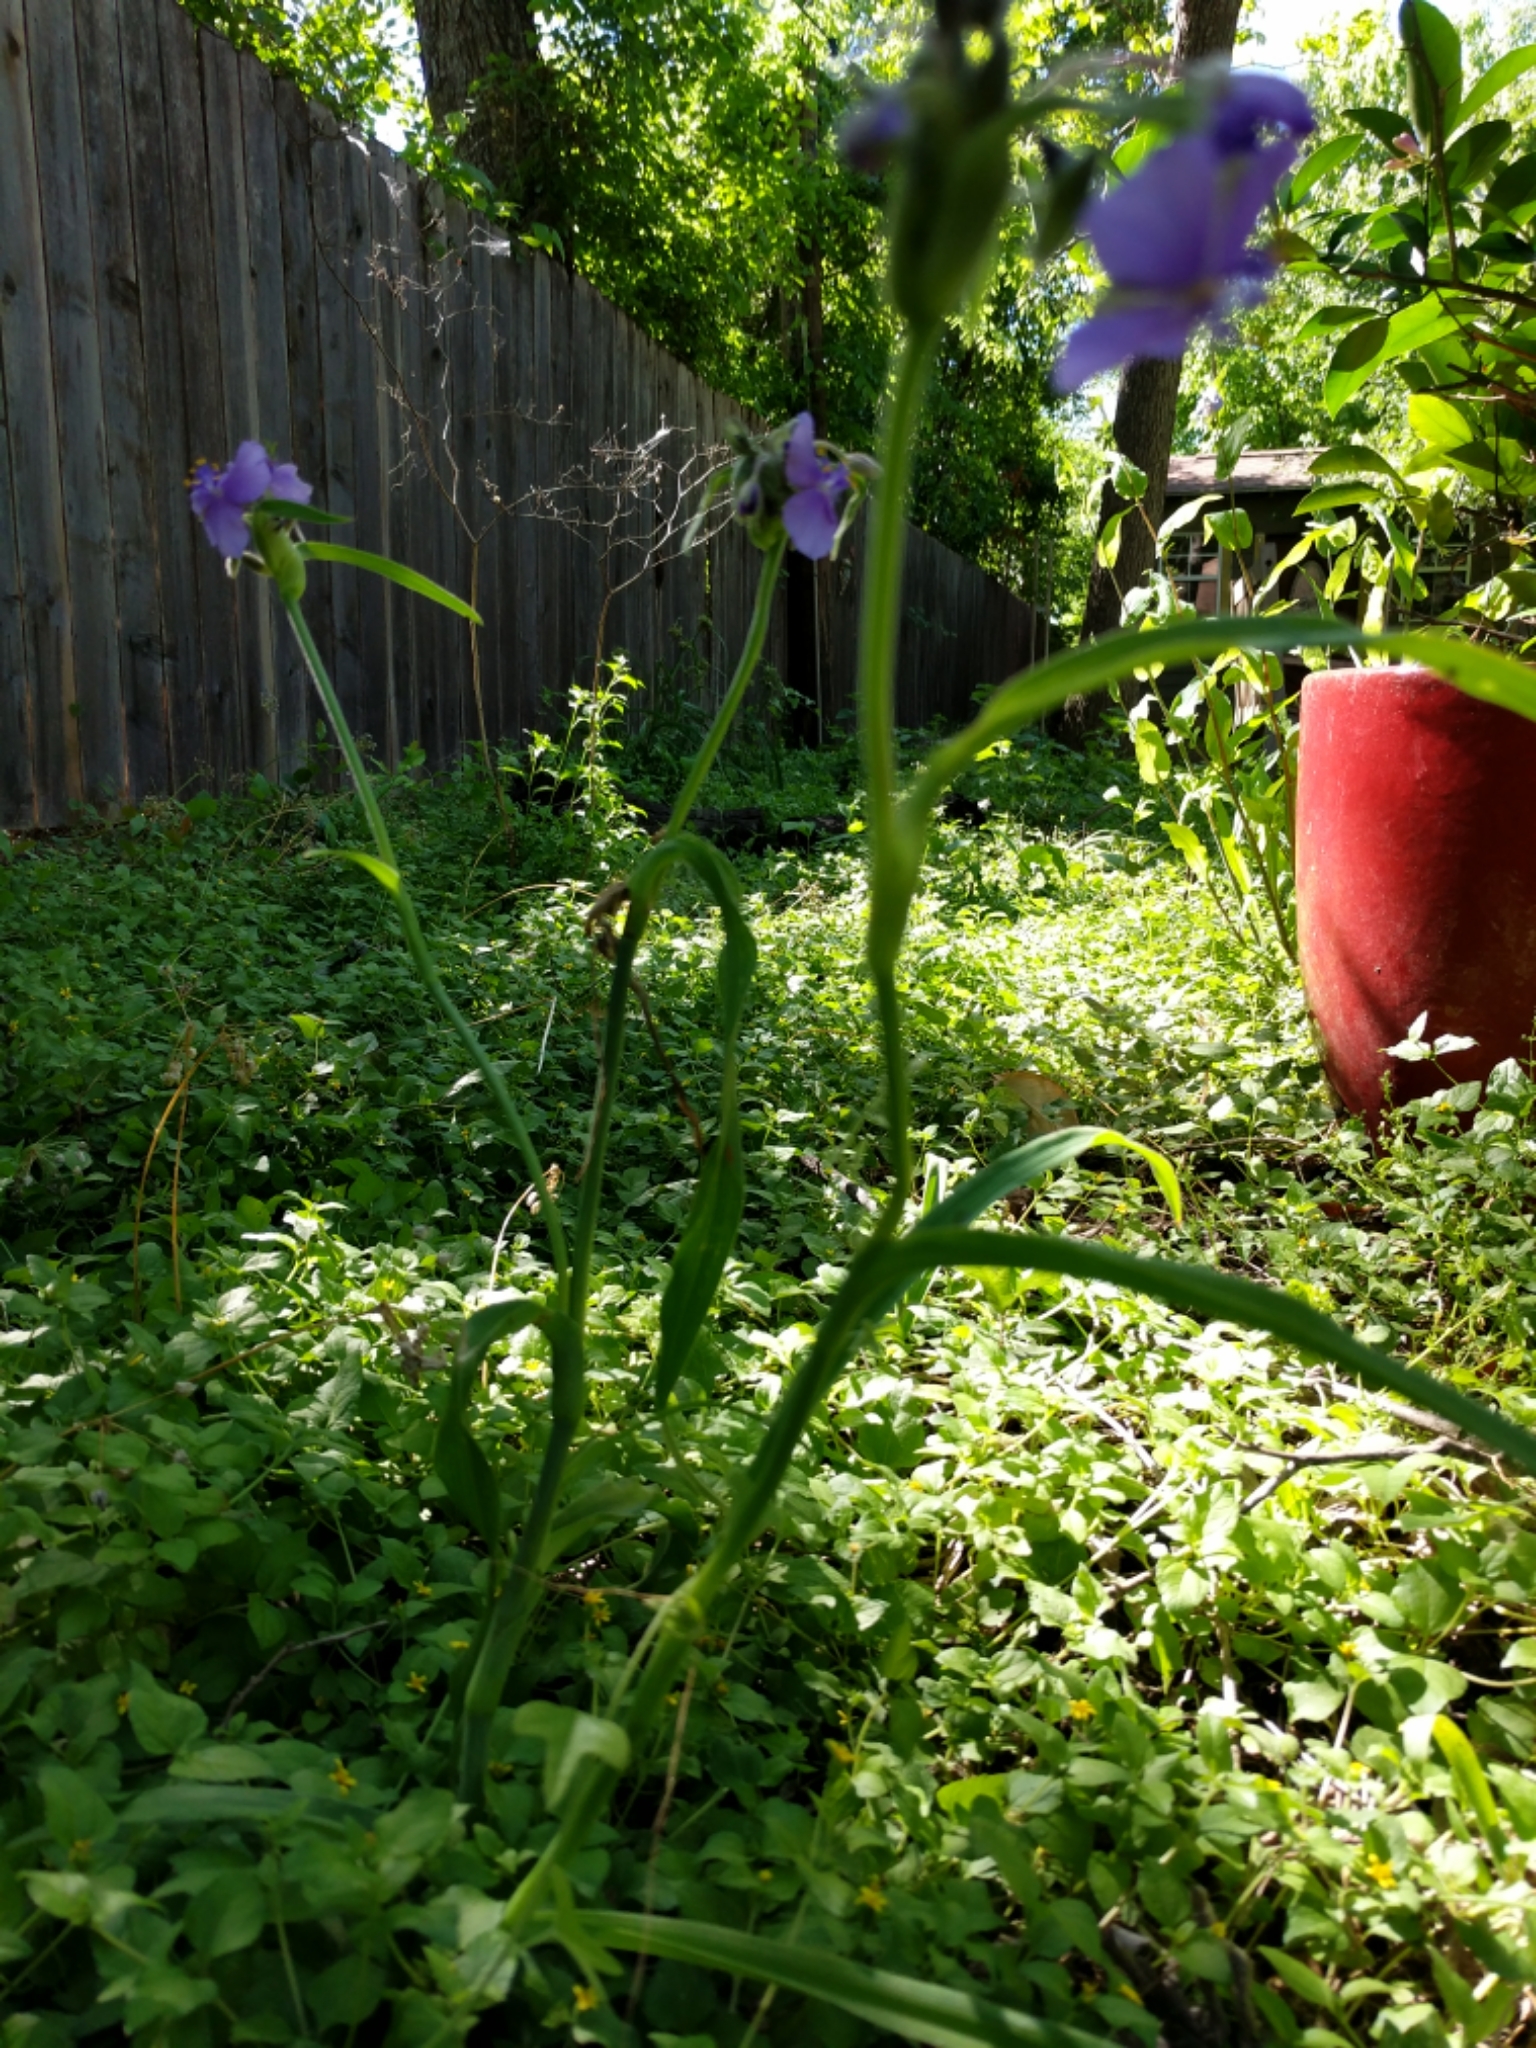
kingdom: Plantae
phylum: Tracheophyta
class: Liliopsida
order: Commelinales
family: Commelinaceae
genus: Tradescantia
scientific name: Tradescantia gigantea
